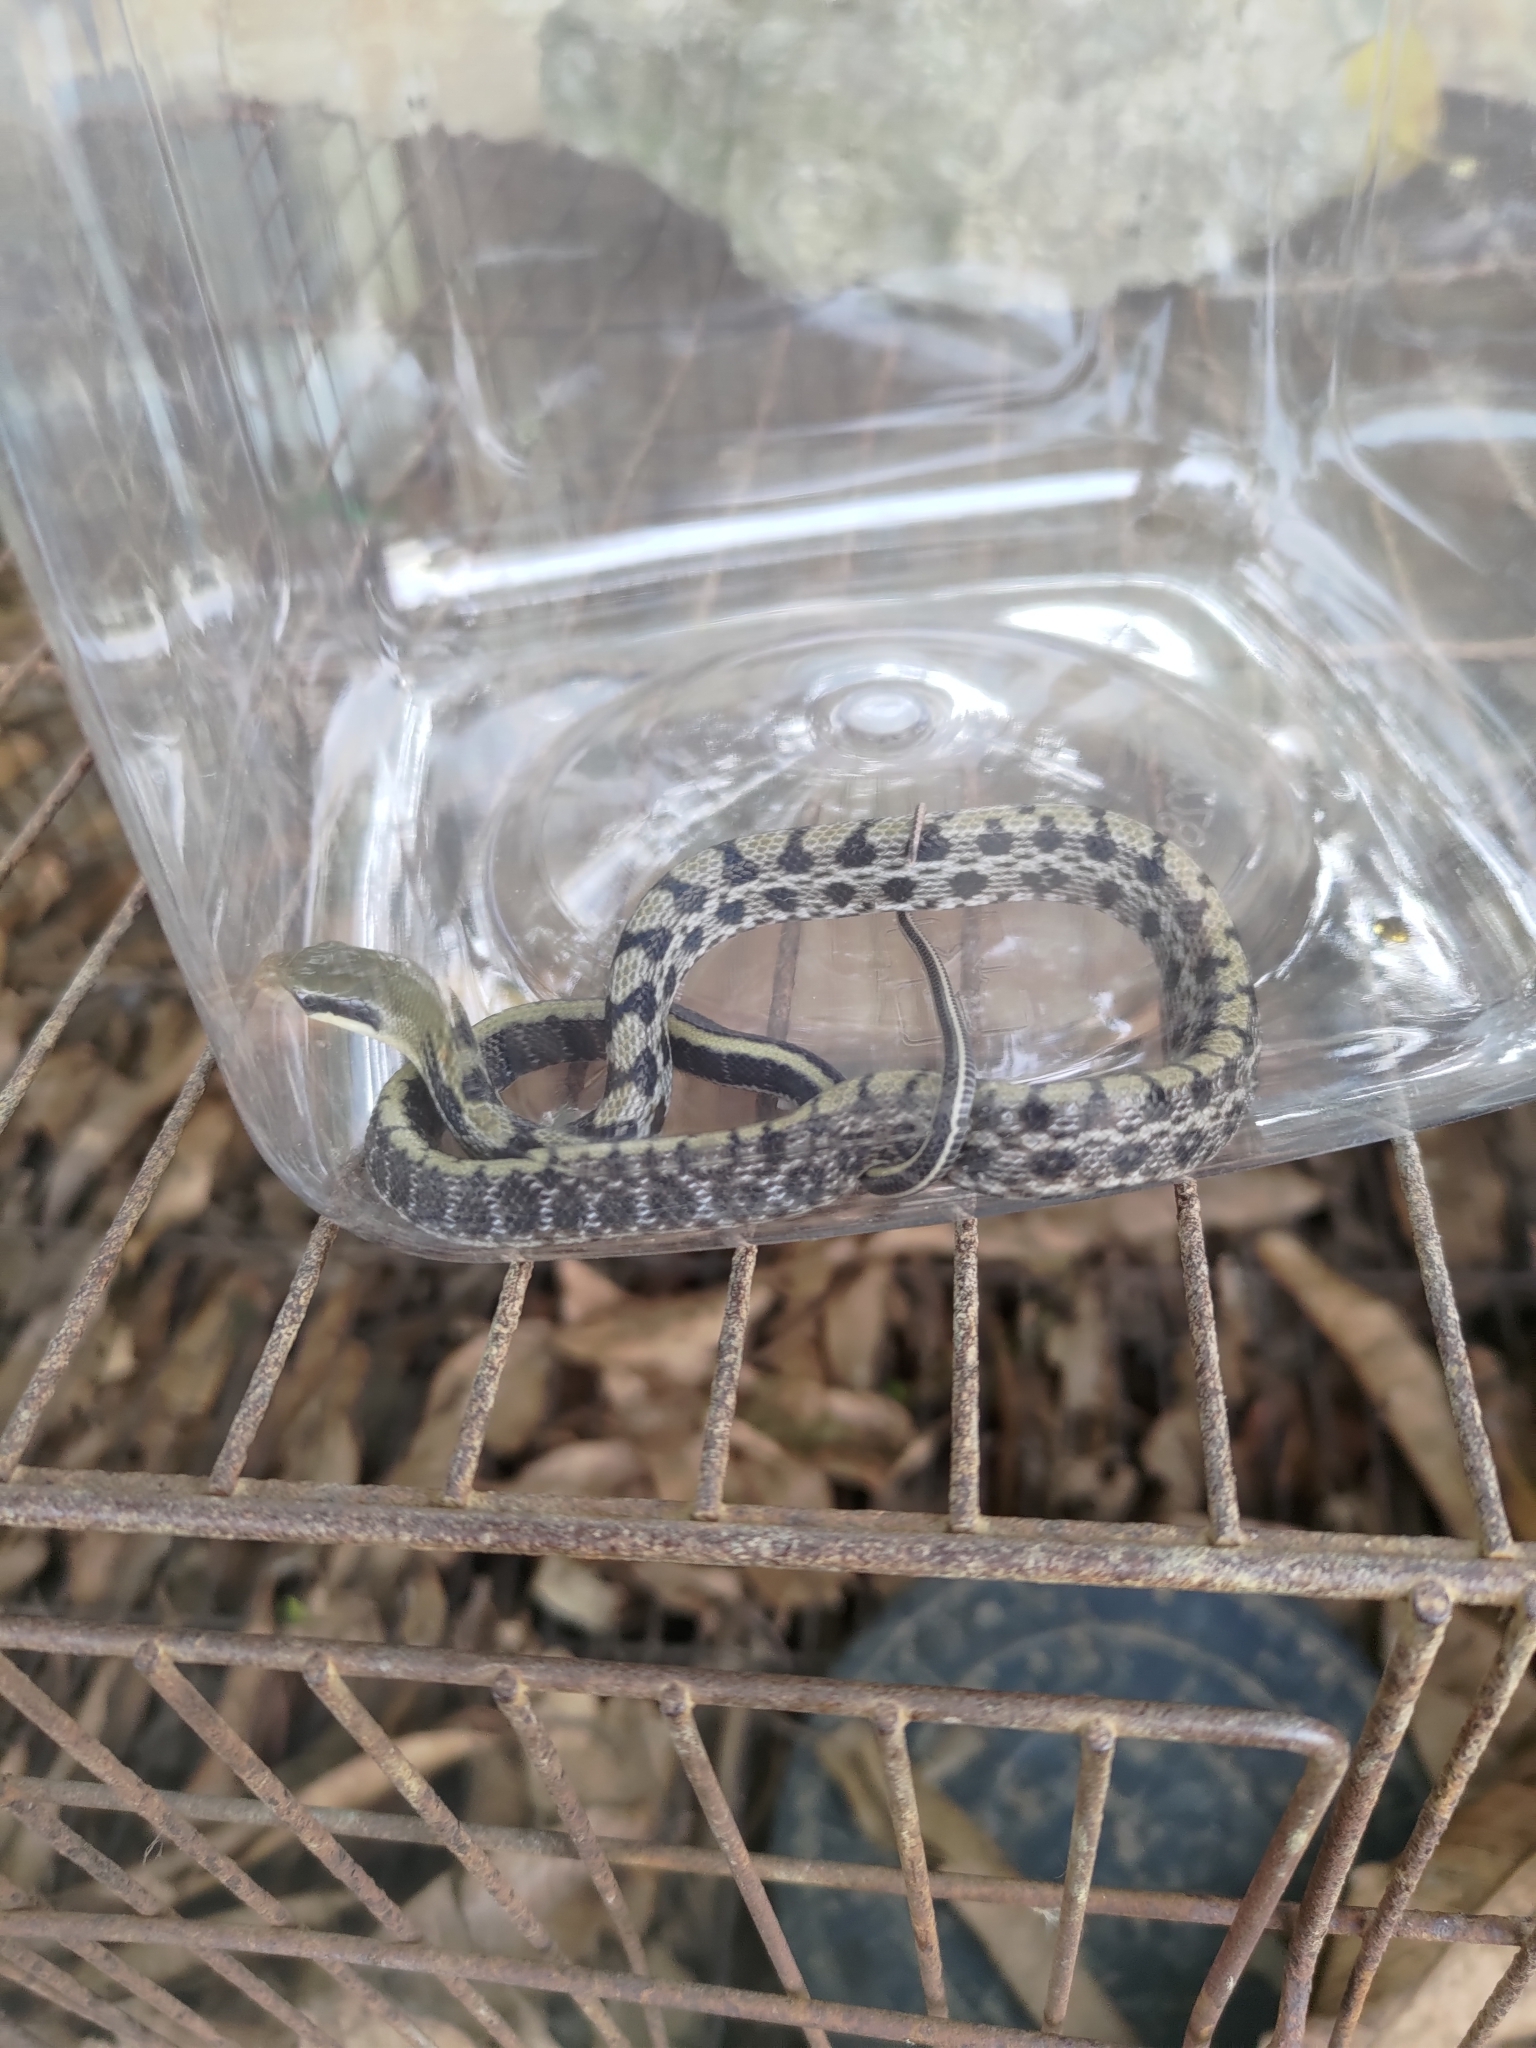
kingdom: Animalia
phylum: Chordata
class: Squamata
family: Colubridae
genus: Elaphe
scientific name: Elaphe taeniura
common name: Beauty snake
